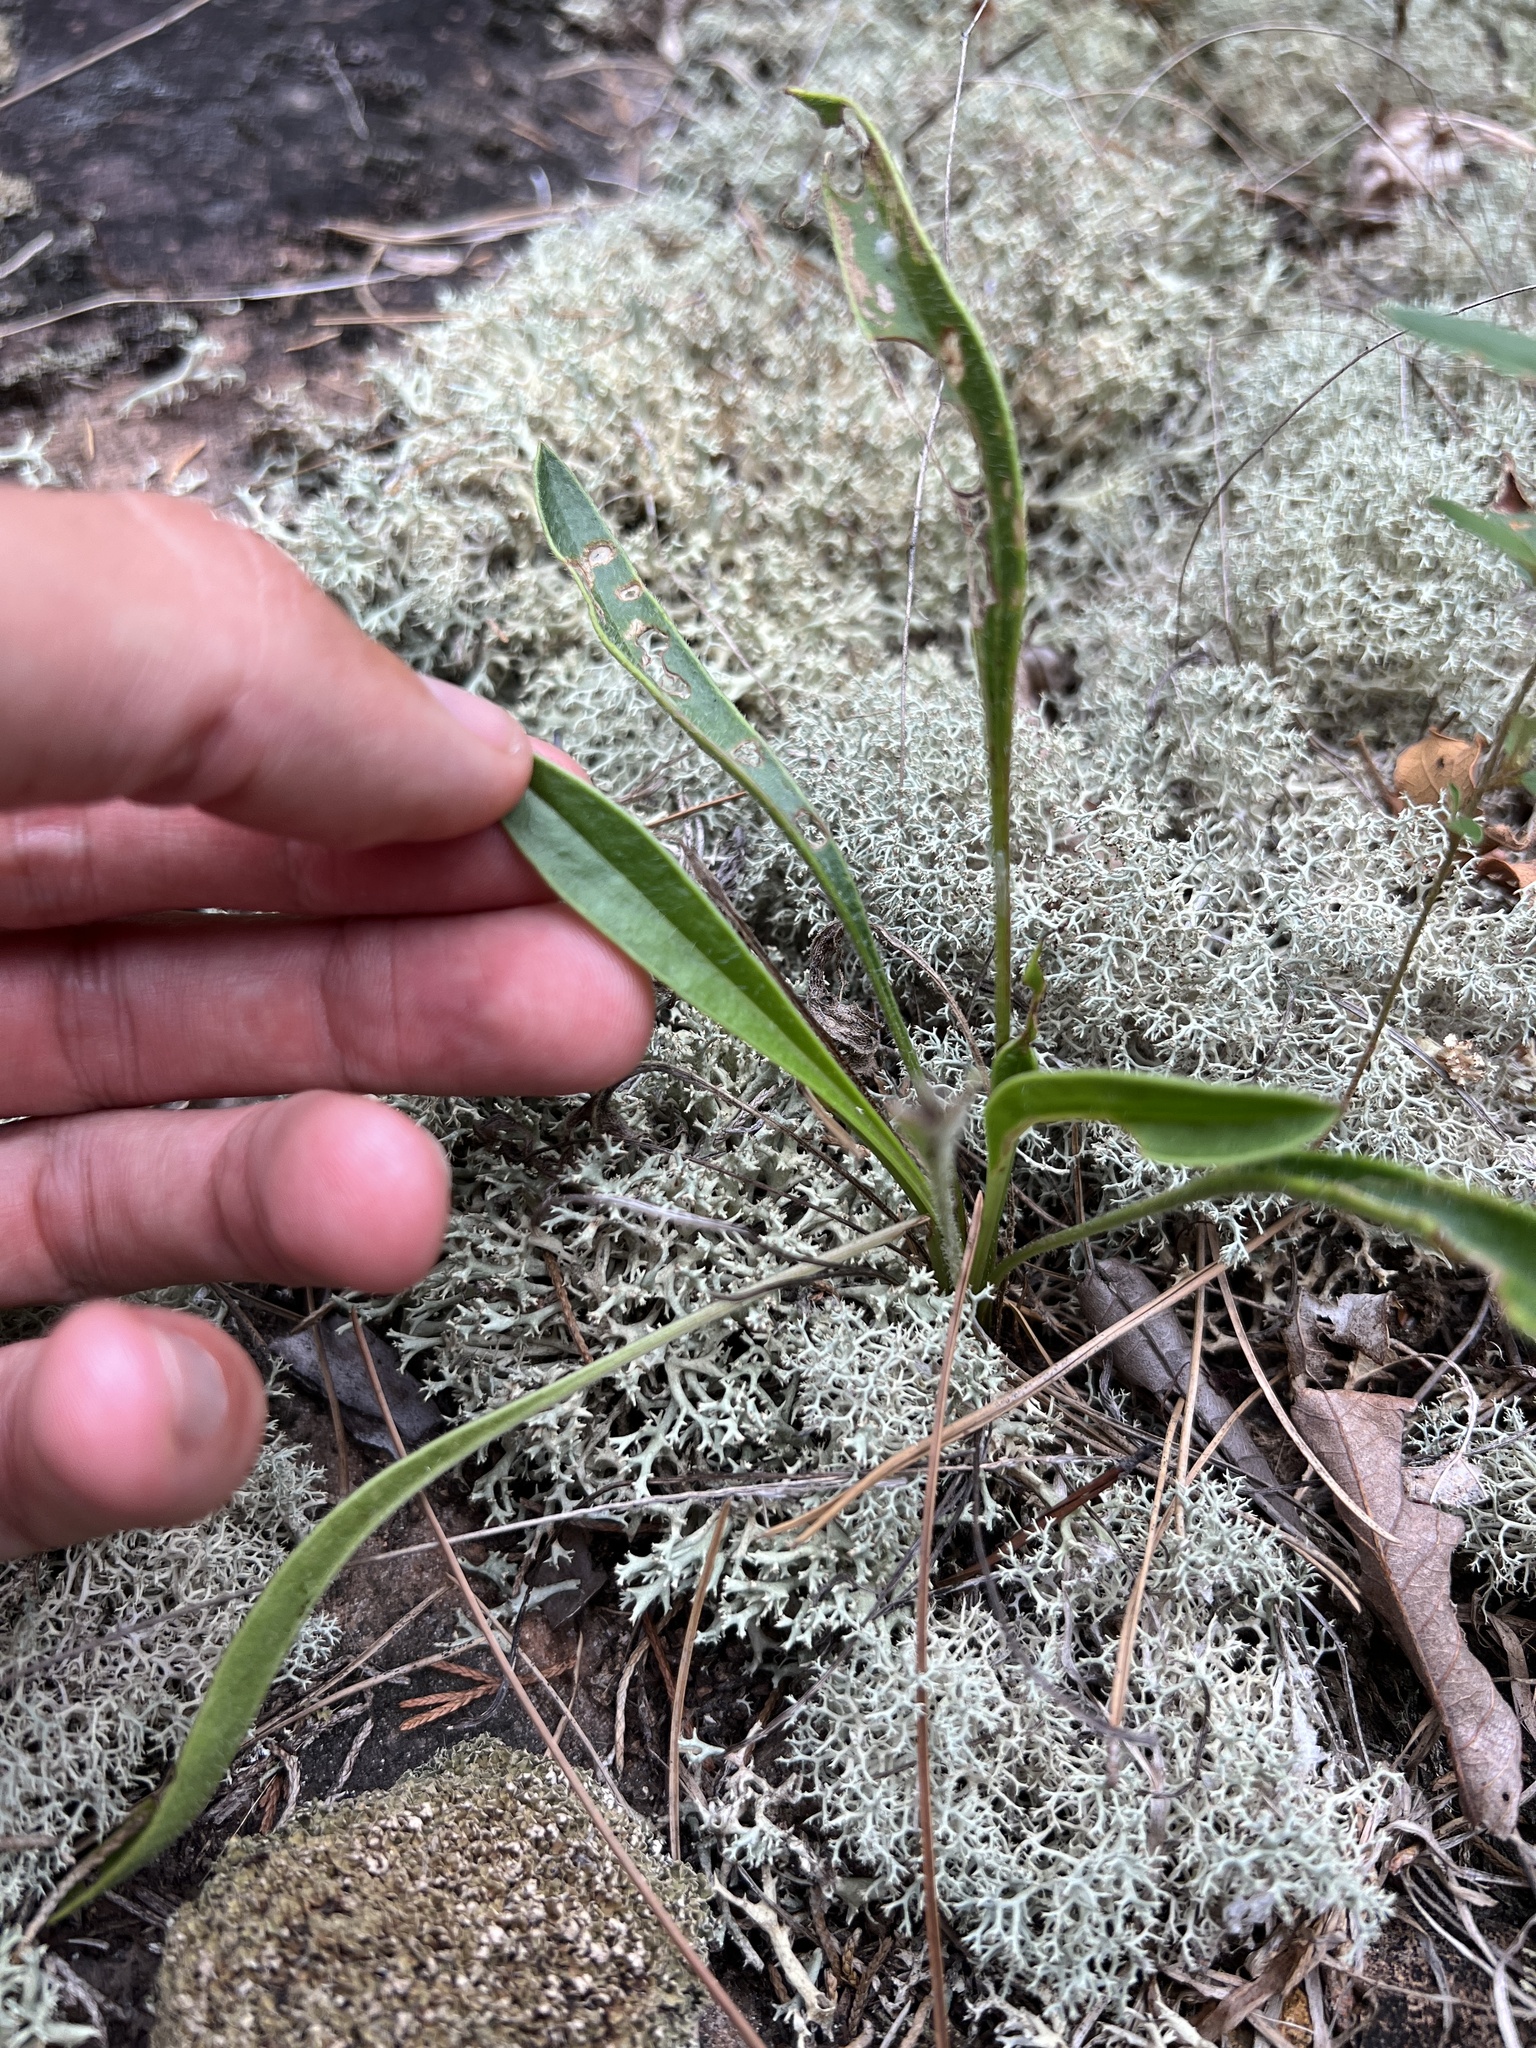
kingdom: Plantae
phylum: Tracheophyta
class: Magnoliopsida
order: Asterales
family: Asteraceae
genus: Coreopsis
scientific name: Coreopsis lanceolata
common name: Garden coreopsis
